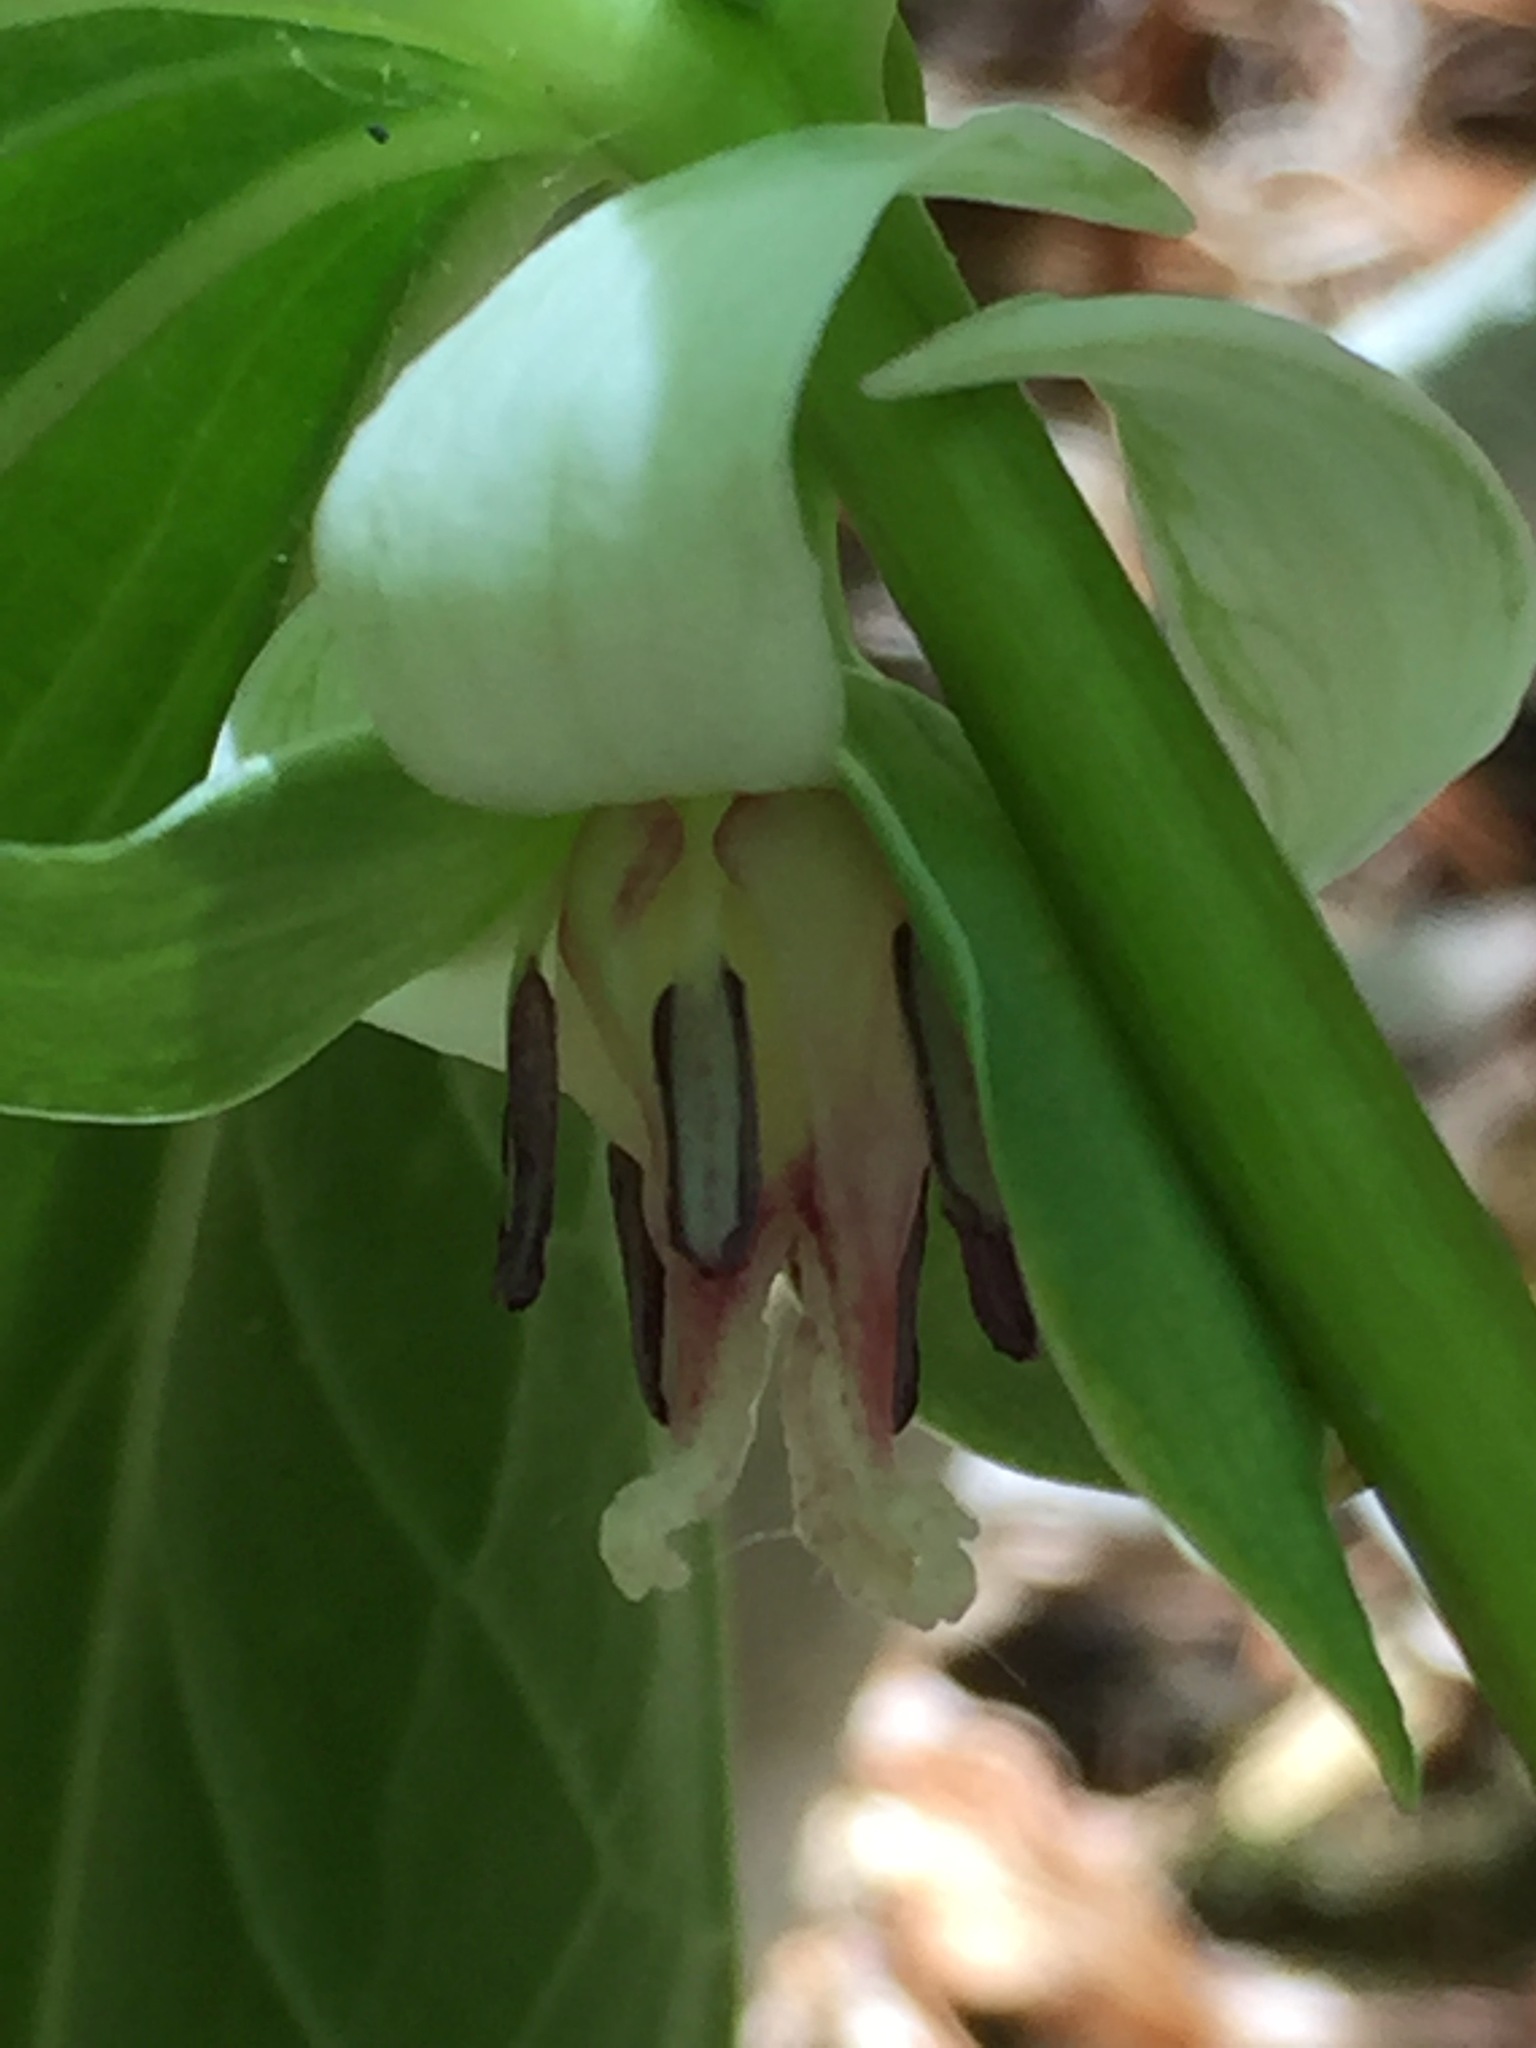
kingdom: Plantae
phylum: Tracheophyta
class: Liliopsida
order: Liliales
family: Melanthiaceae
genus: Trillium
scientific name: Trillium cernuum
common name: Nodding trillium
